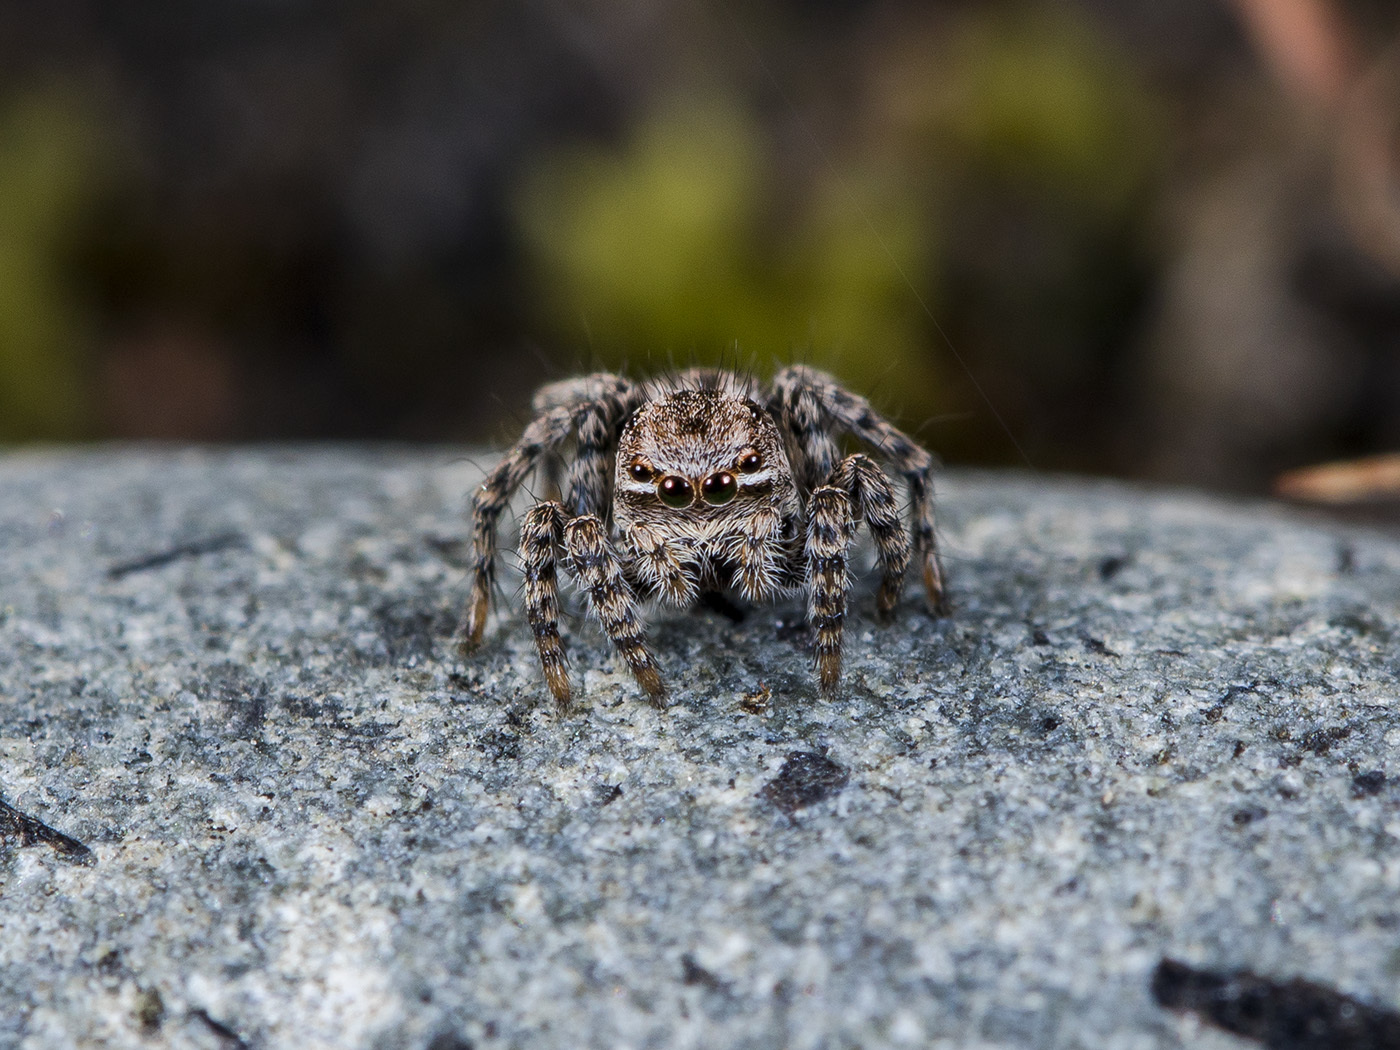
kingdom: Animalia
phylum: Arthropoda
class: Arachnida
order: Araneae
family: Salticidae
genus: Aelurillus
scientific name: Aelurillus v-insignitus
